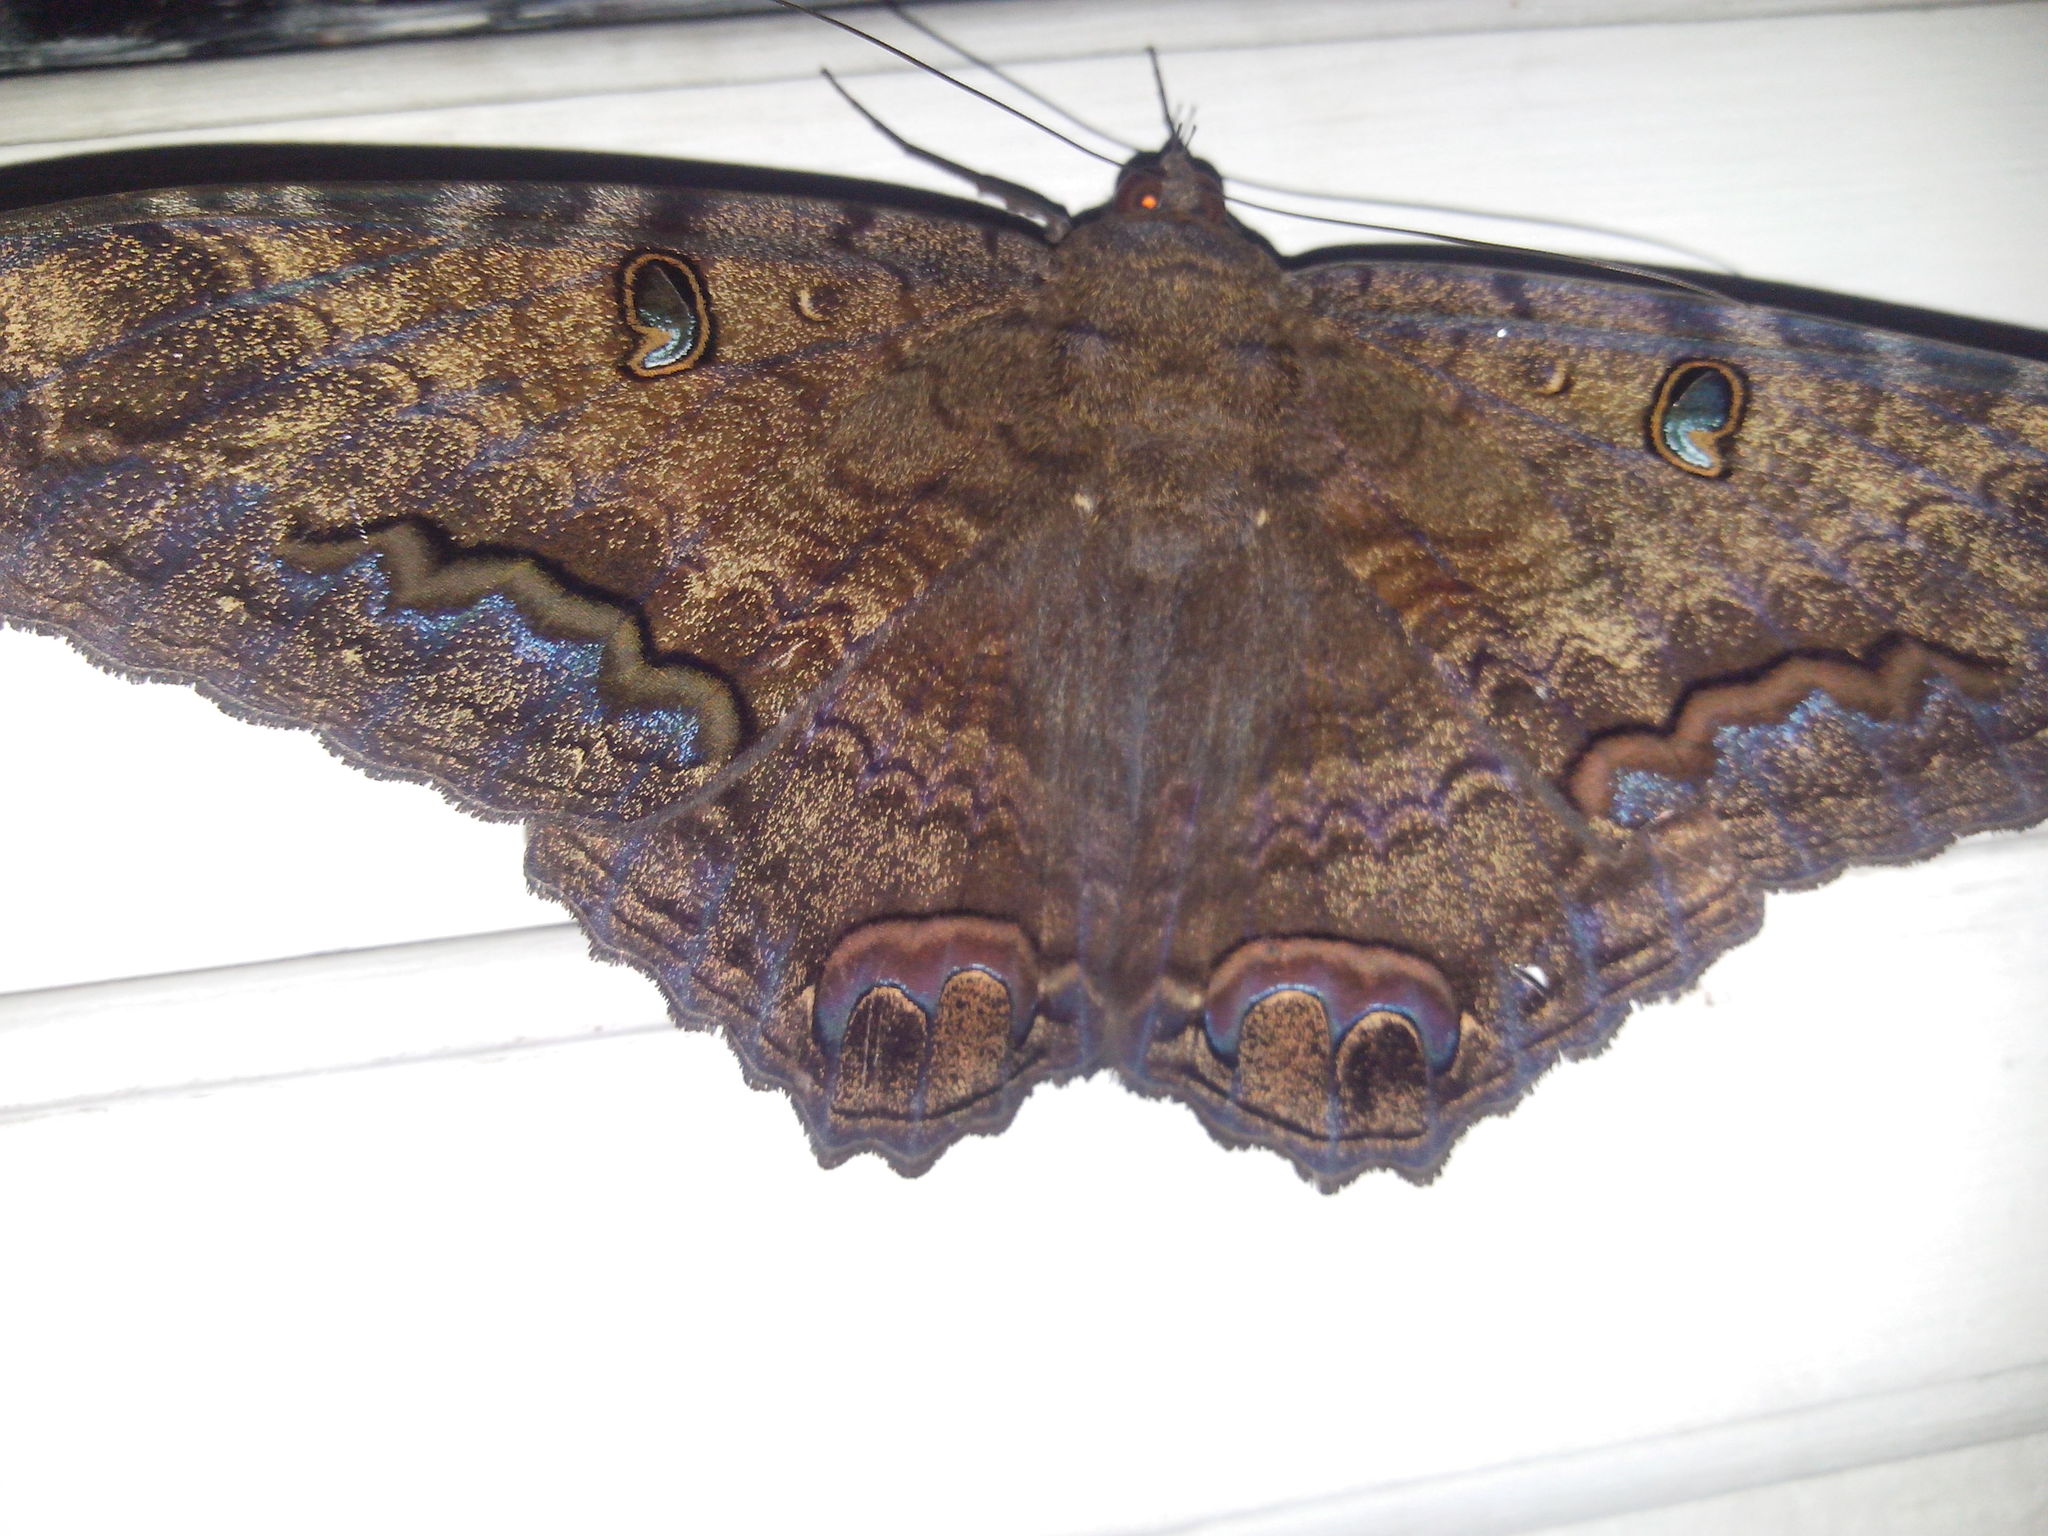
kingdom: Animalia
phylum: Arthropoda
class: Insecta
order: Lepidoptera
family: Erebidae
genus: Ascalapha
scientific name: Ascalapha odorata
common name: Black witch
